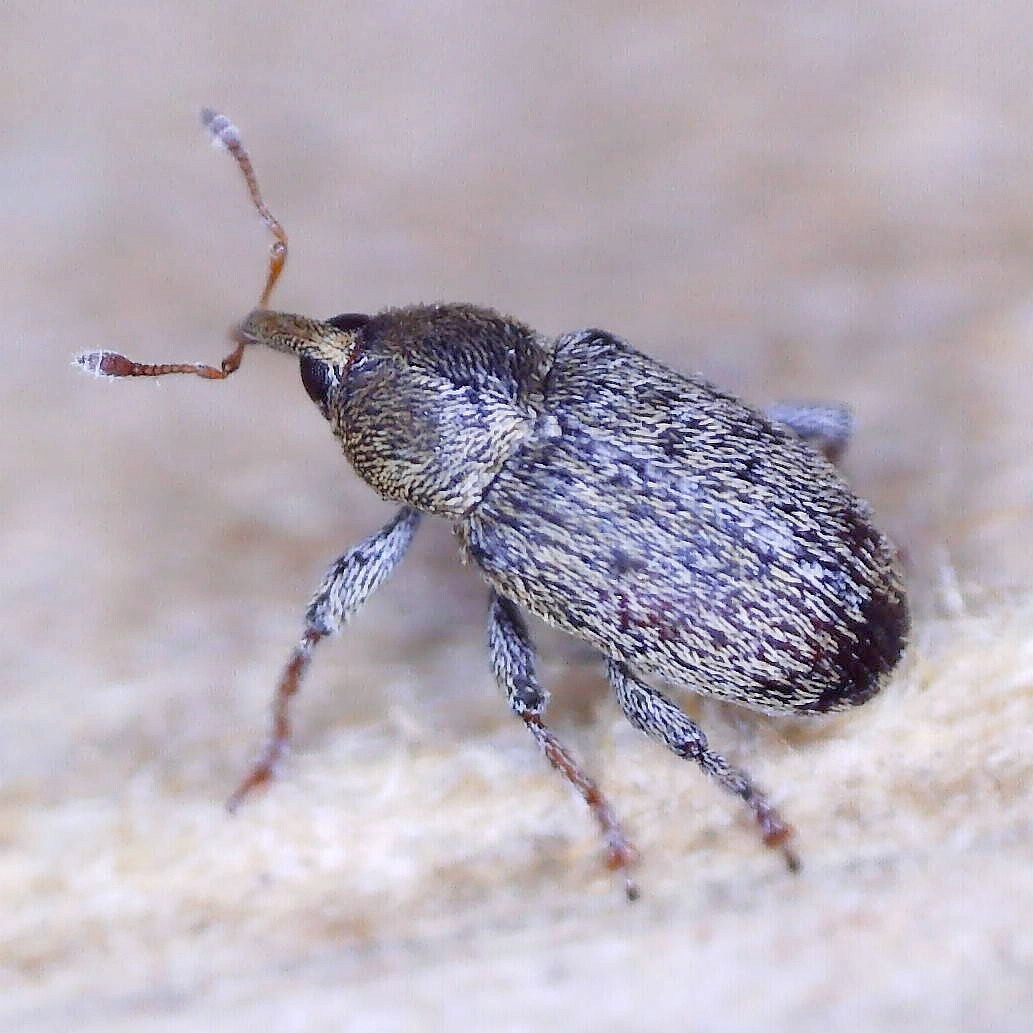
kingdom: Animalia
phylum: Arthropoda
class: Insecta
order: Coleoptera
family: Curculionidae
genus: Tychius
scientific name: Tychius meliloti
